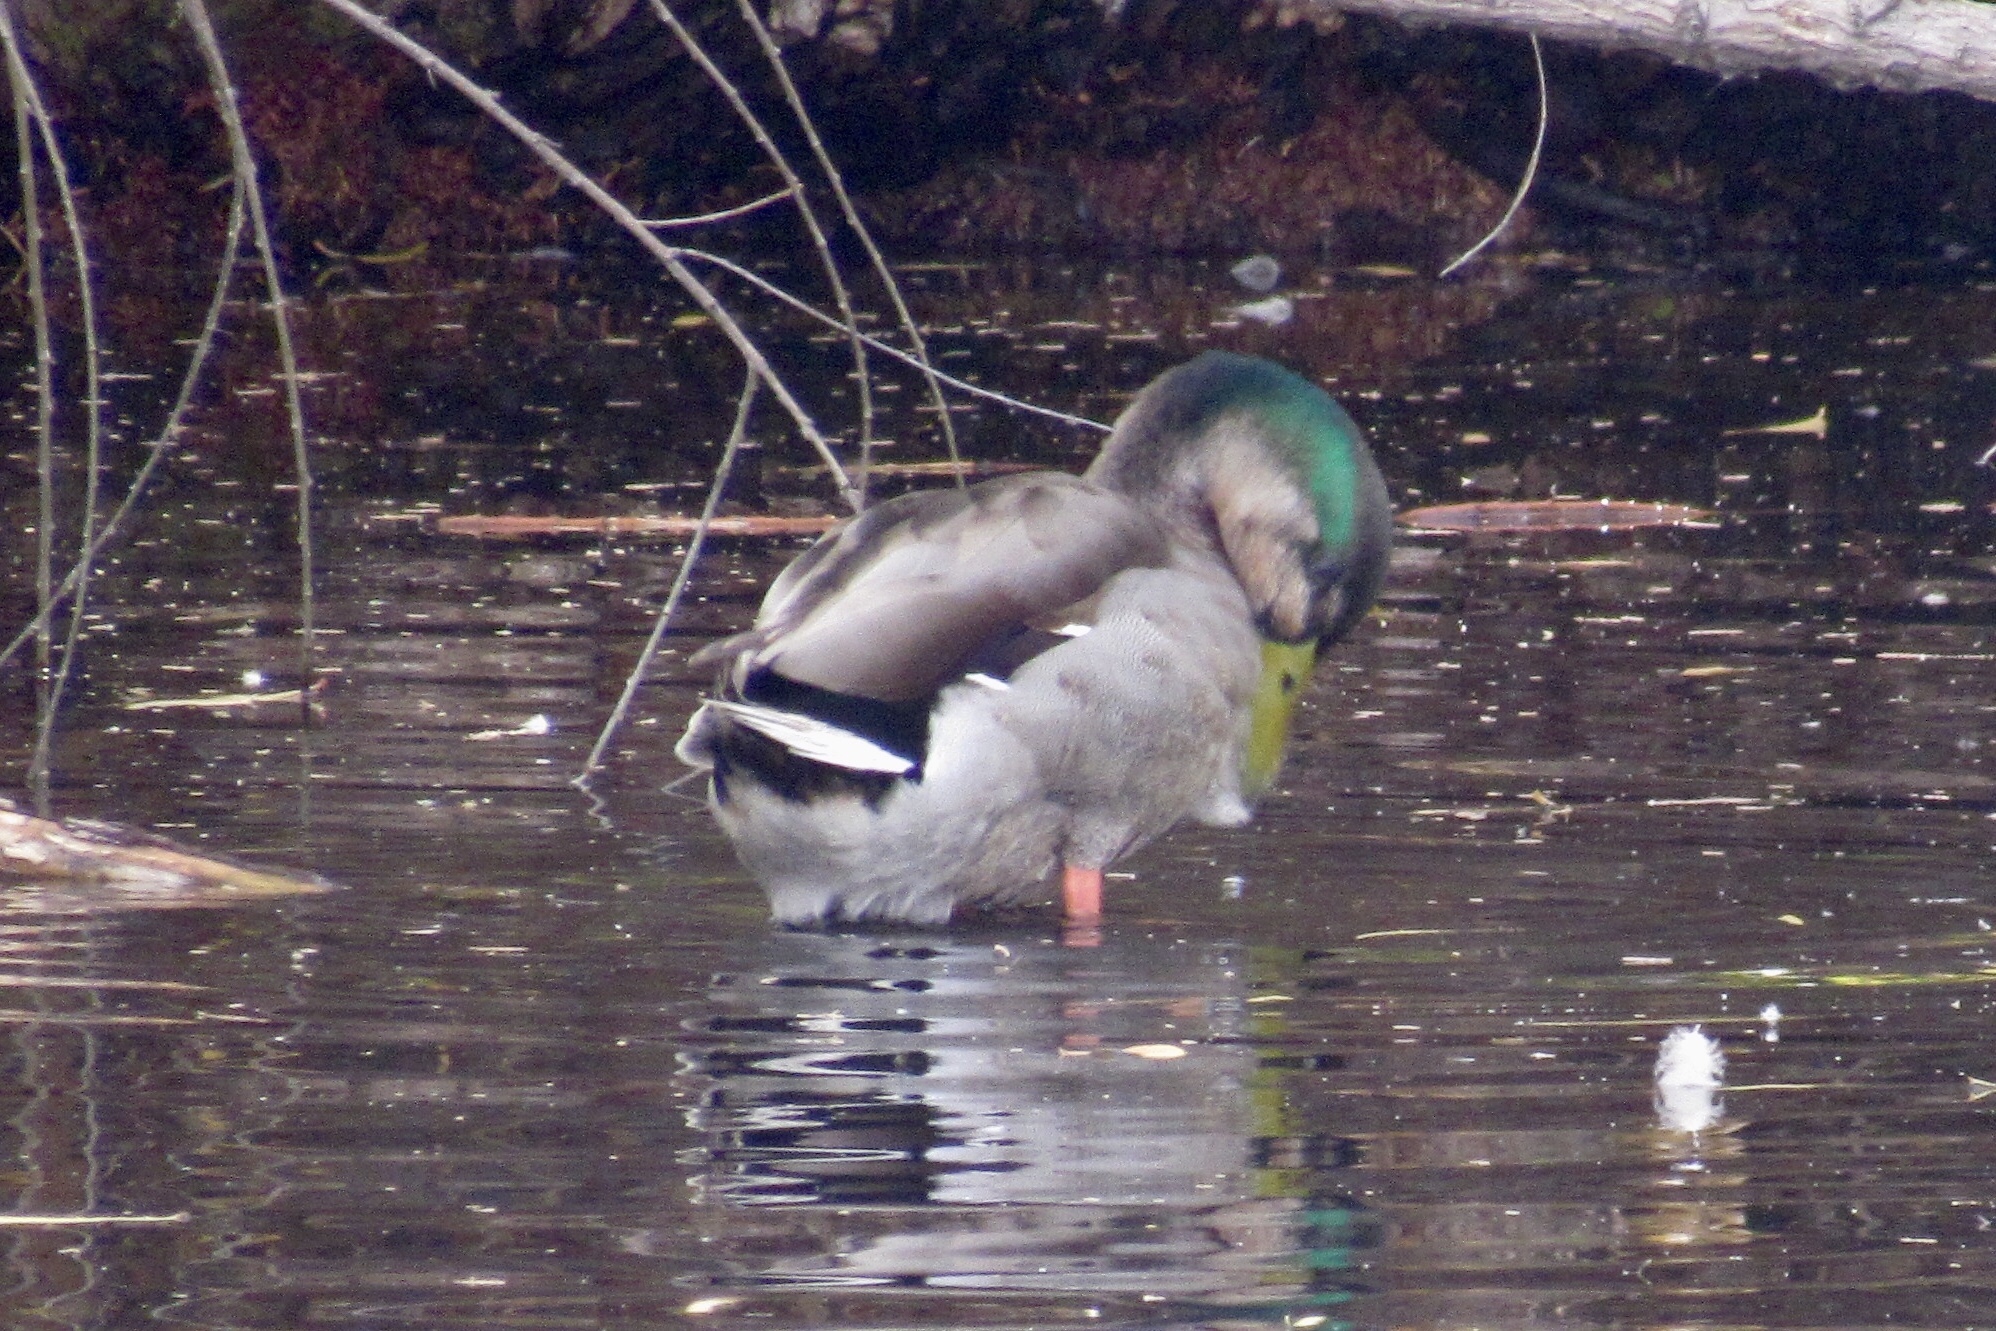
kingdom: Animalia
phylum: Chordata
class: Aves
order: Anseriformes
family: Anatidae
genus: Anas
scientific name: Anas platyrhynchos
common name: Mallard
